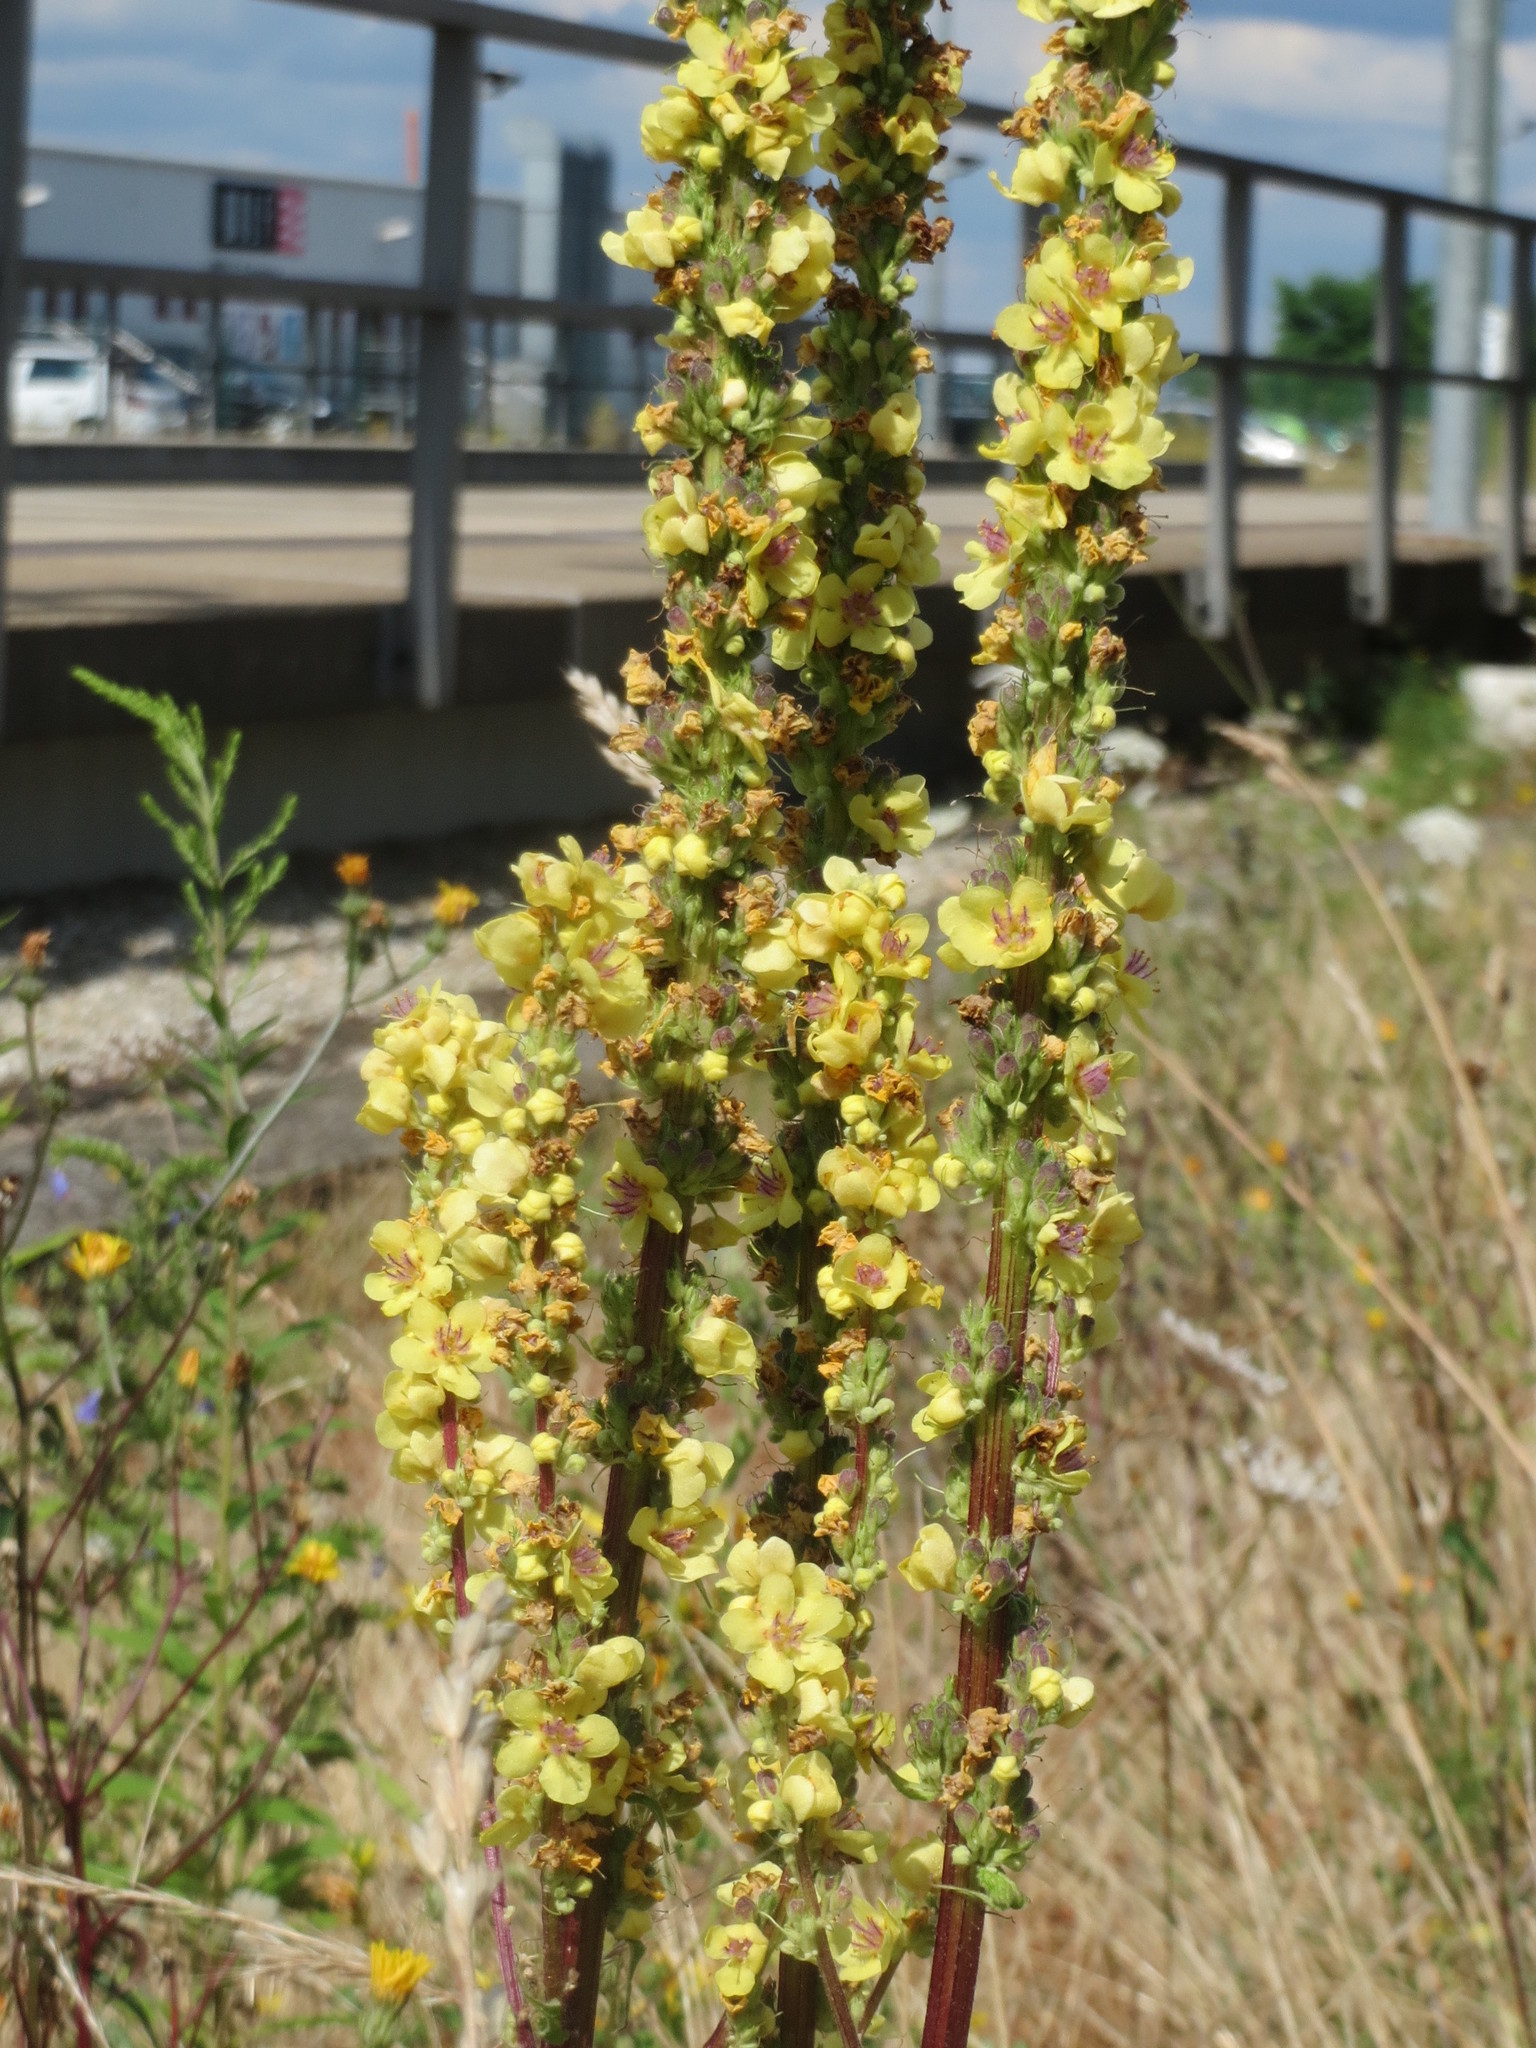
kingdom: Plantae
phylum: Tracheophyta
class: Magnoliopsida
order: Lamiales
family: Scrophulariaceae
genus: Verbascum
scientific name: Verbascum nigrum
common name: Dark mullein
